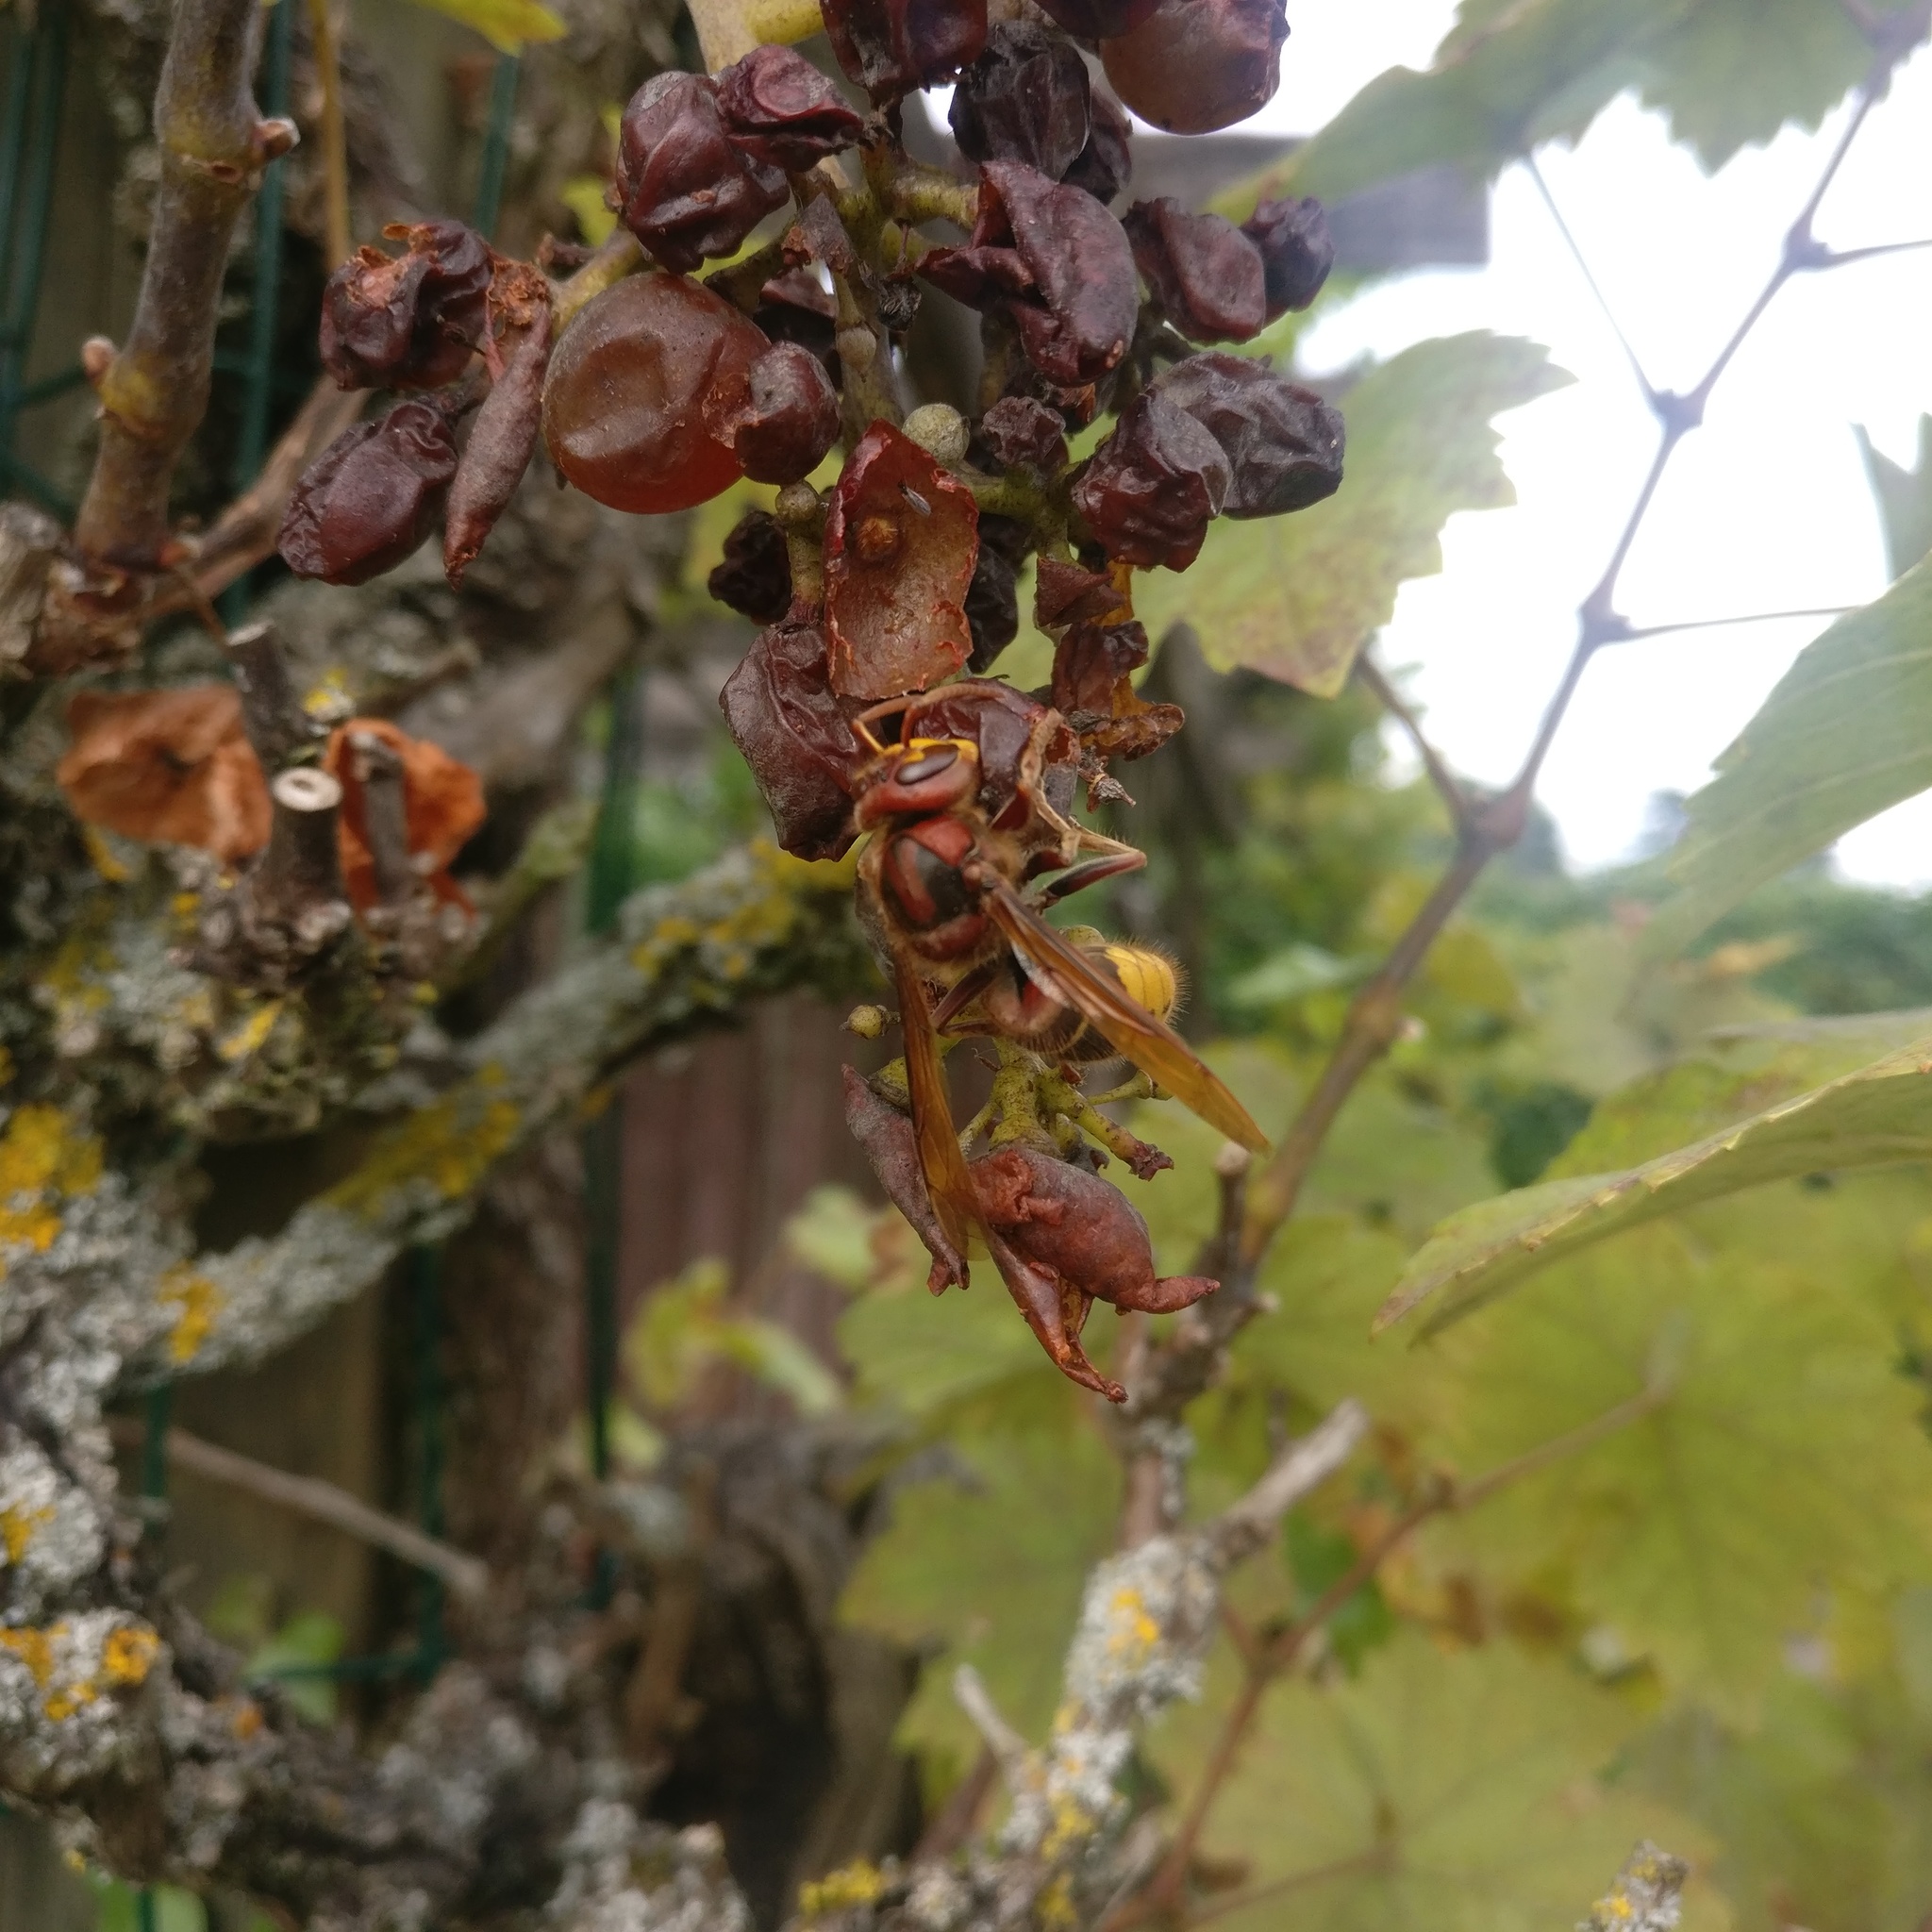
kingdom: Animalia
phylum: Arthropoda
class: Insecta
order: Hymenoptera
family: Vespidae
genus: Vespa
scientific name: Vespa crabro
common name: Hornet
